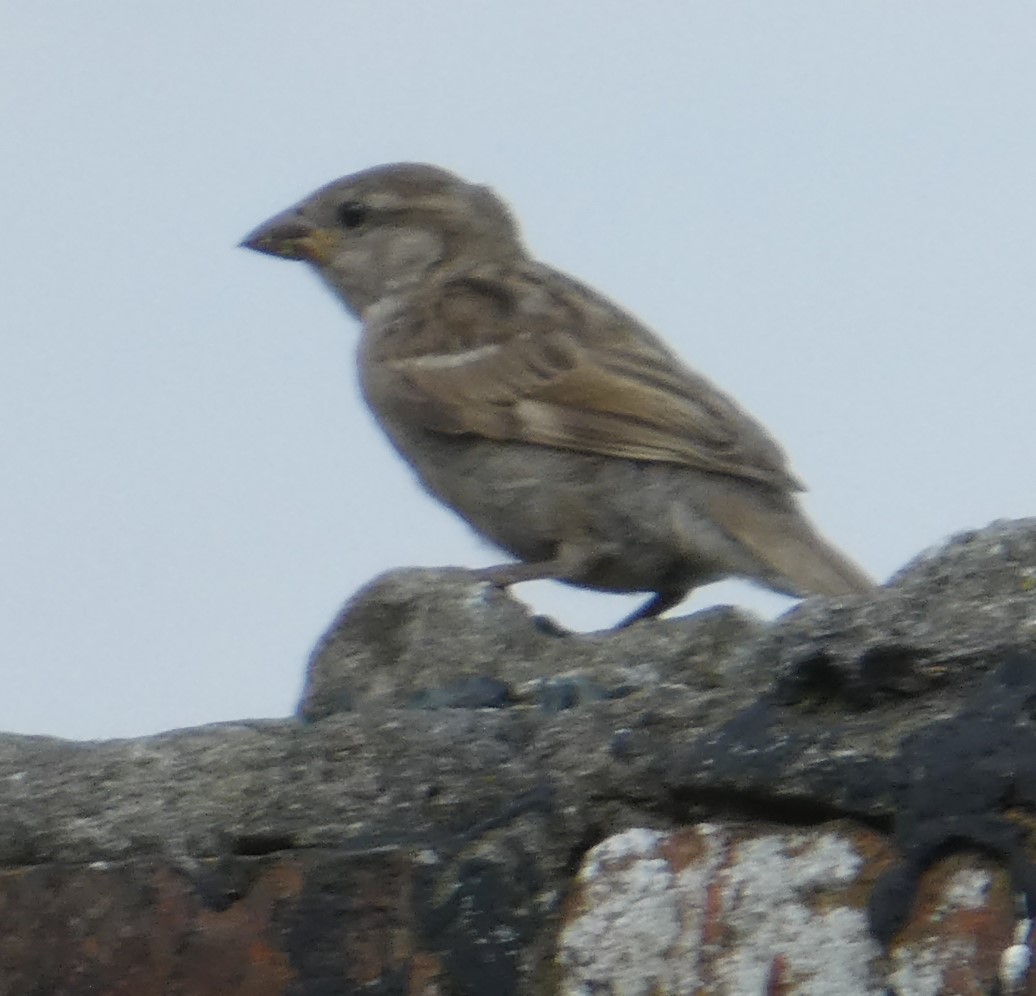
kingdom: Animalia
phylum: Chordata
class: Aves
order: Passeriformes
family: Passeridae
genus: Passer
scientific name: Passer domesticus
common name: House sparrow
